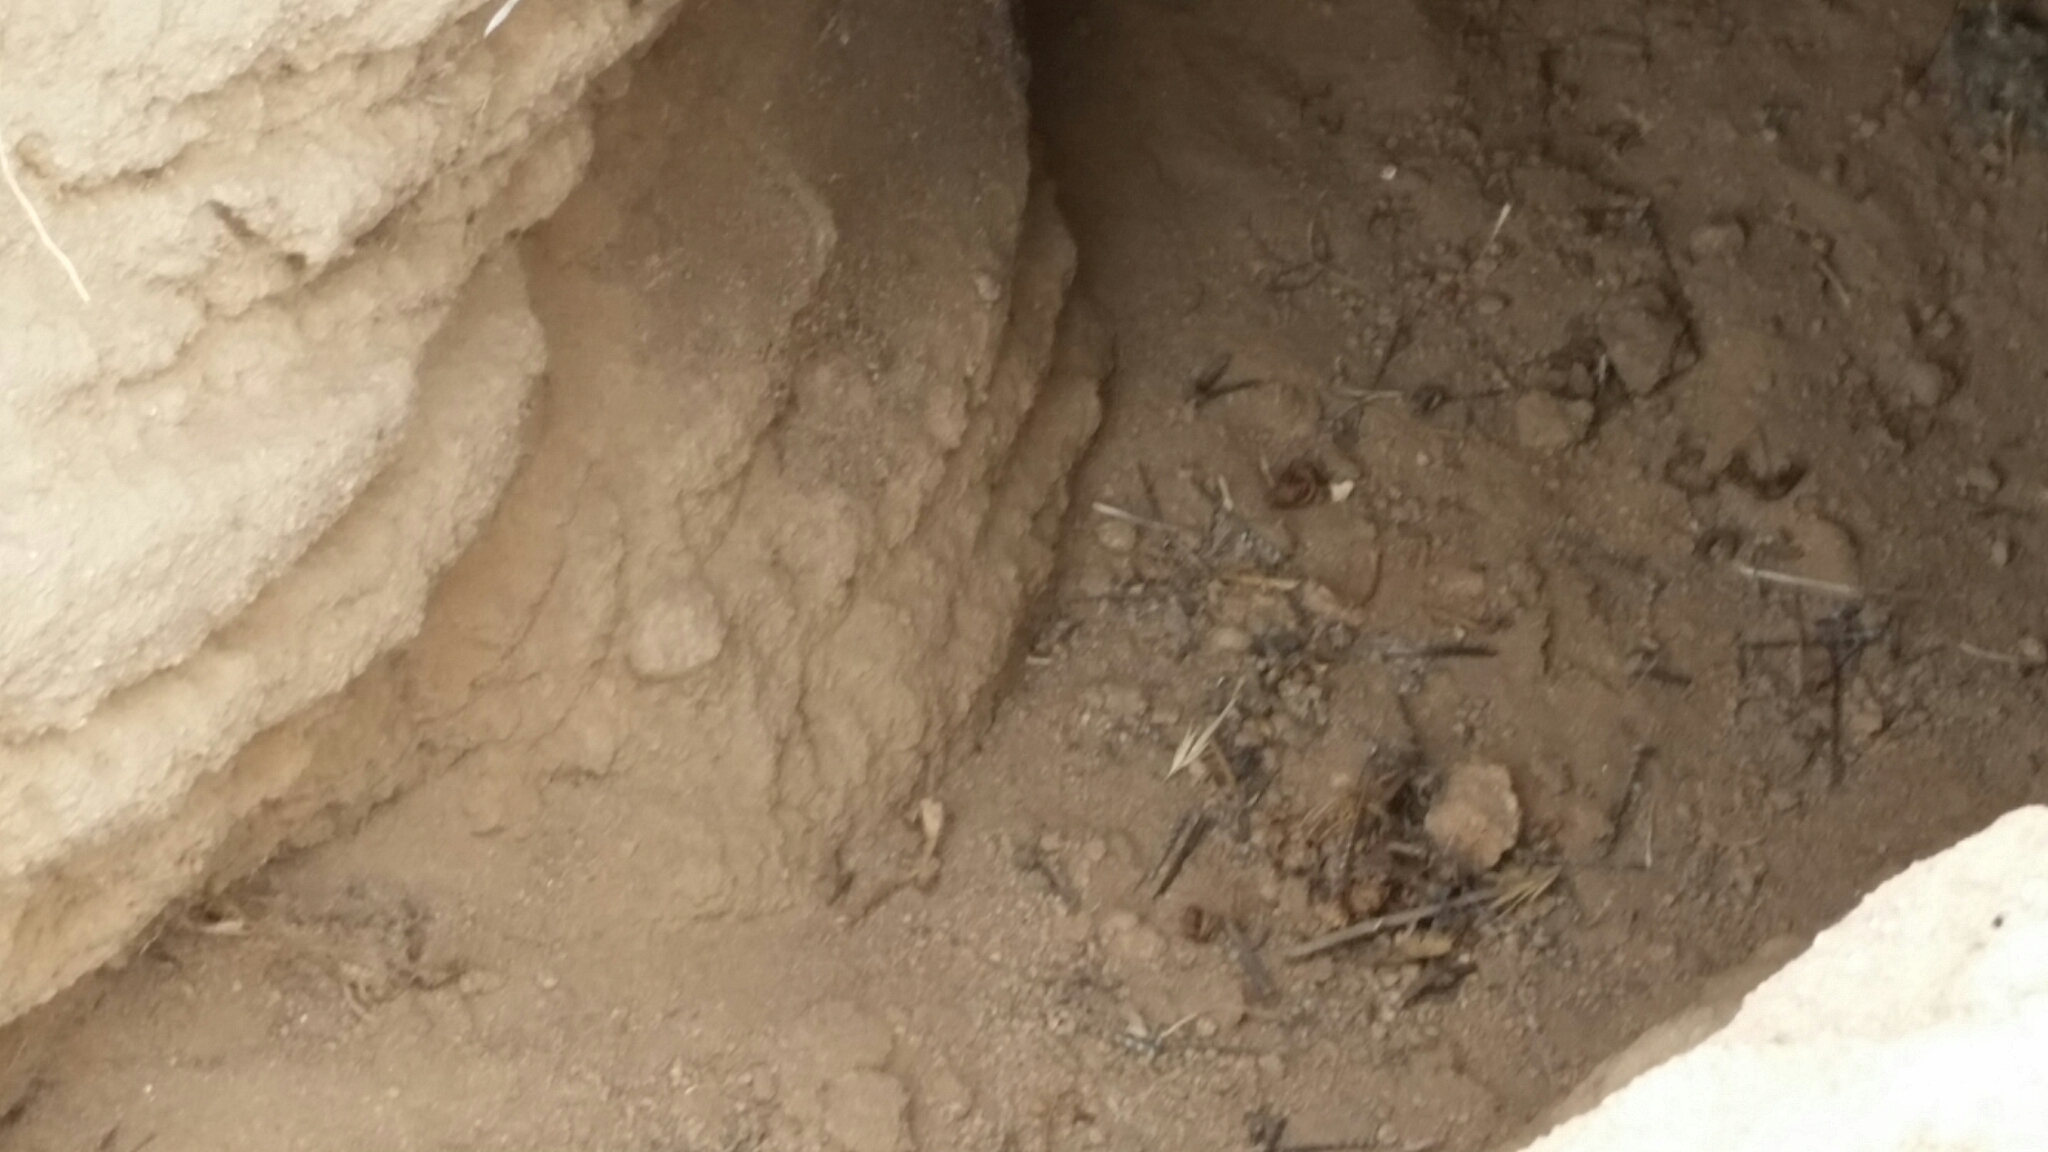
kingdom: Animalia
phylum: Chordata
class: Mammalia
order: Carnivora
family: Mustelidae
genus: Taxidea
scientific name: Taxidea taxus
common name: American badger
